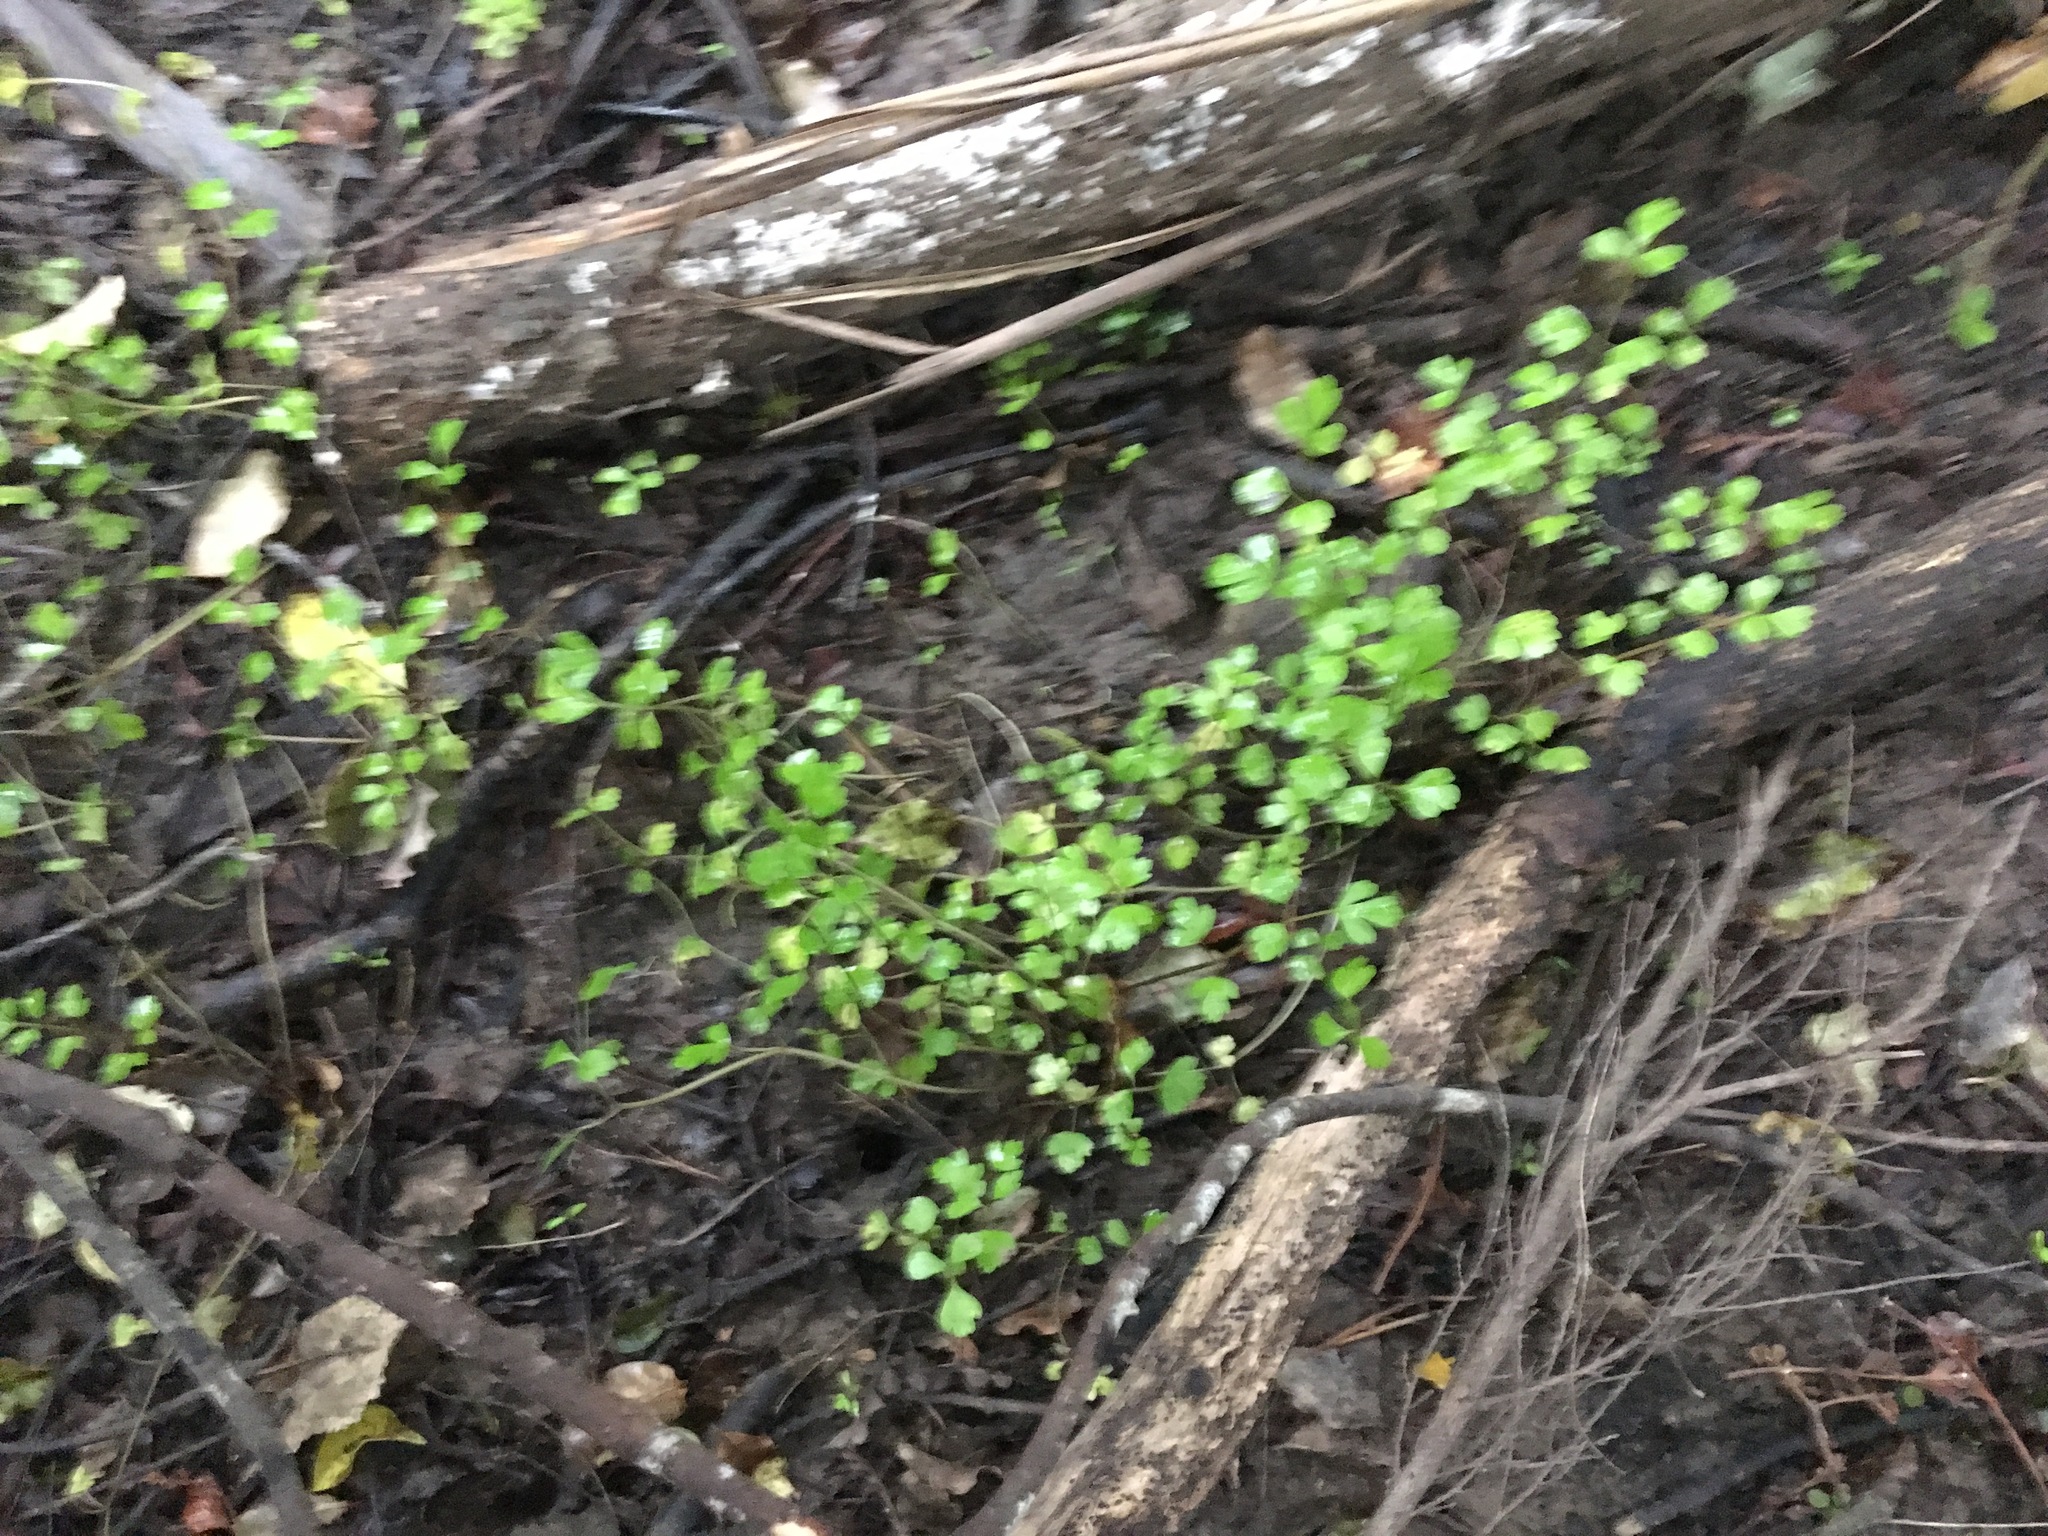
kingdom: Plantae
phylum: Tracheophyta
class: Magnoliopsida
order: Apiales
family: Apiaceae
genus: Apium
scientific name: Apium prostratum
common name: Prostrate marshwort
